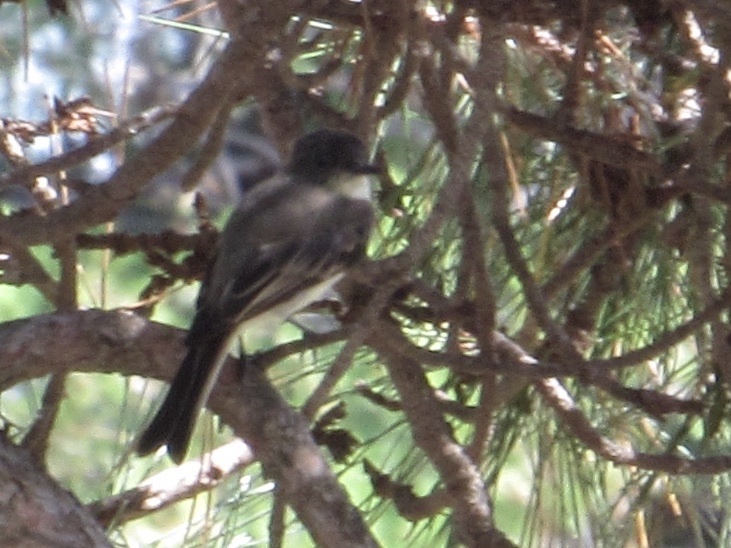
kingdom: Animalia
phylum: Chordata
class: Aves
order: Passeriformes
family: Tyrannidae
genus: Sayornis
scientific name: Sayornis phoebe
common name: Eastern phoebe
